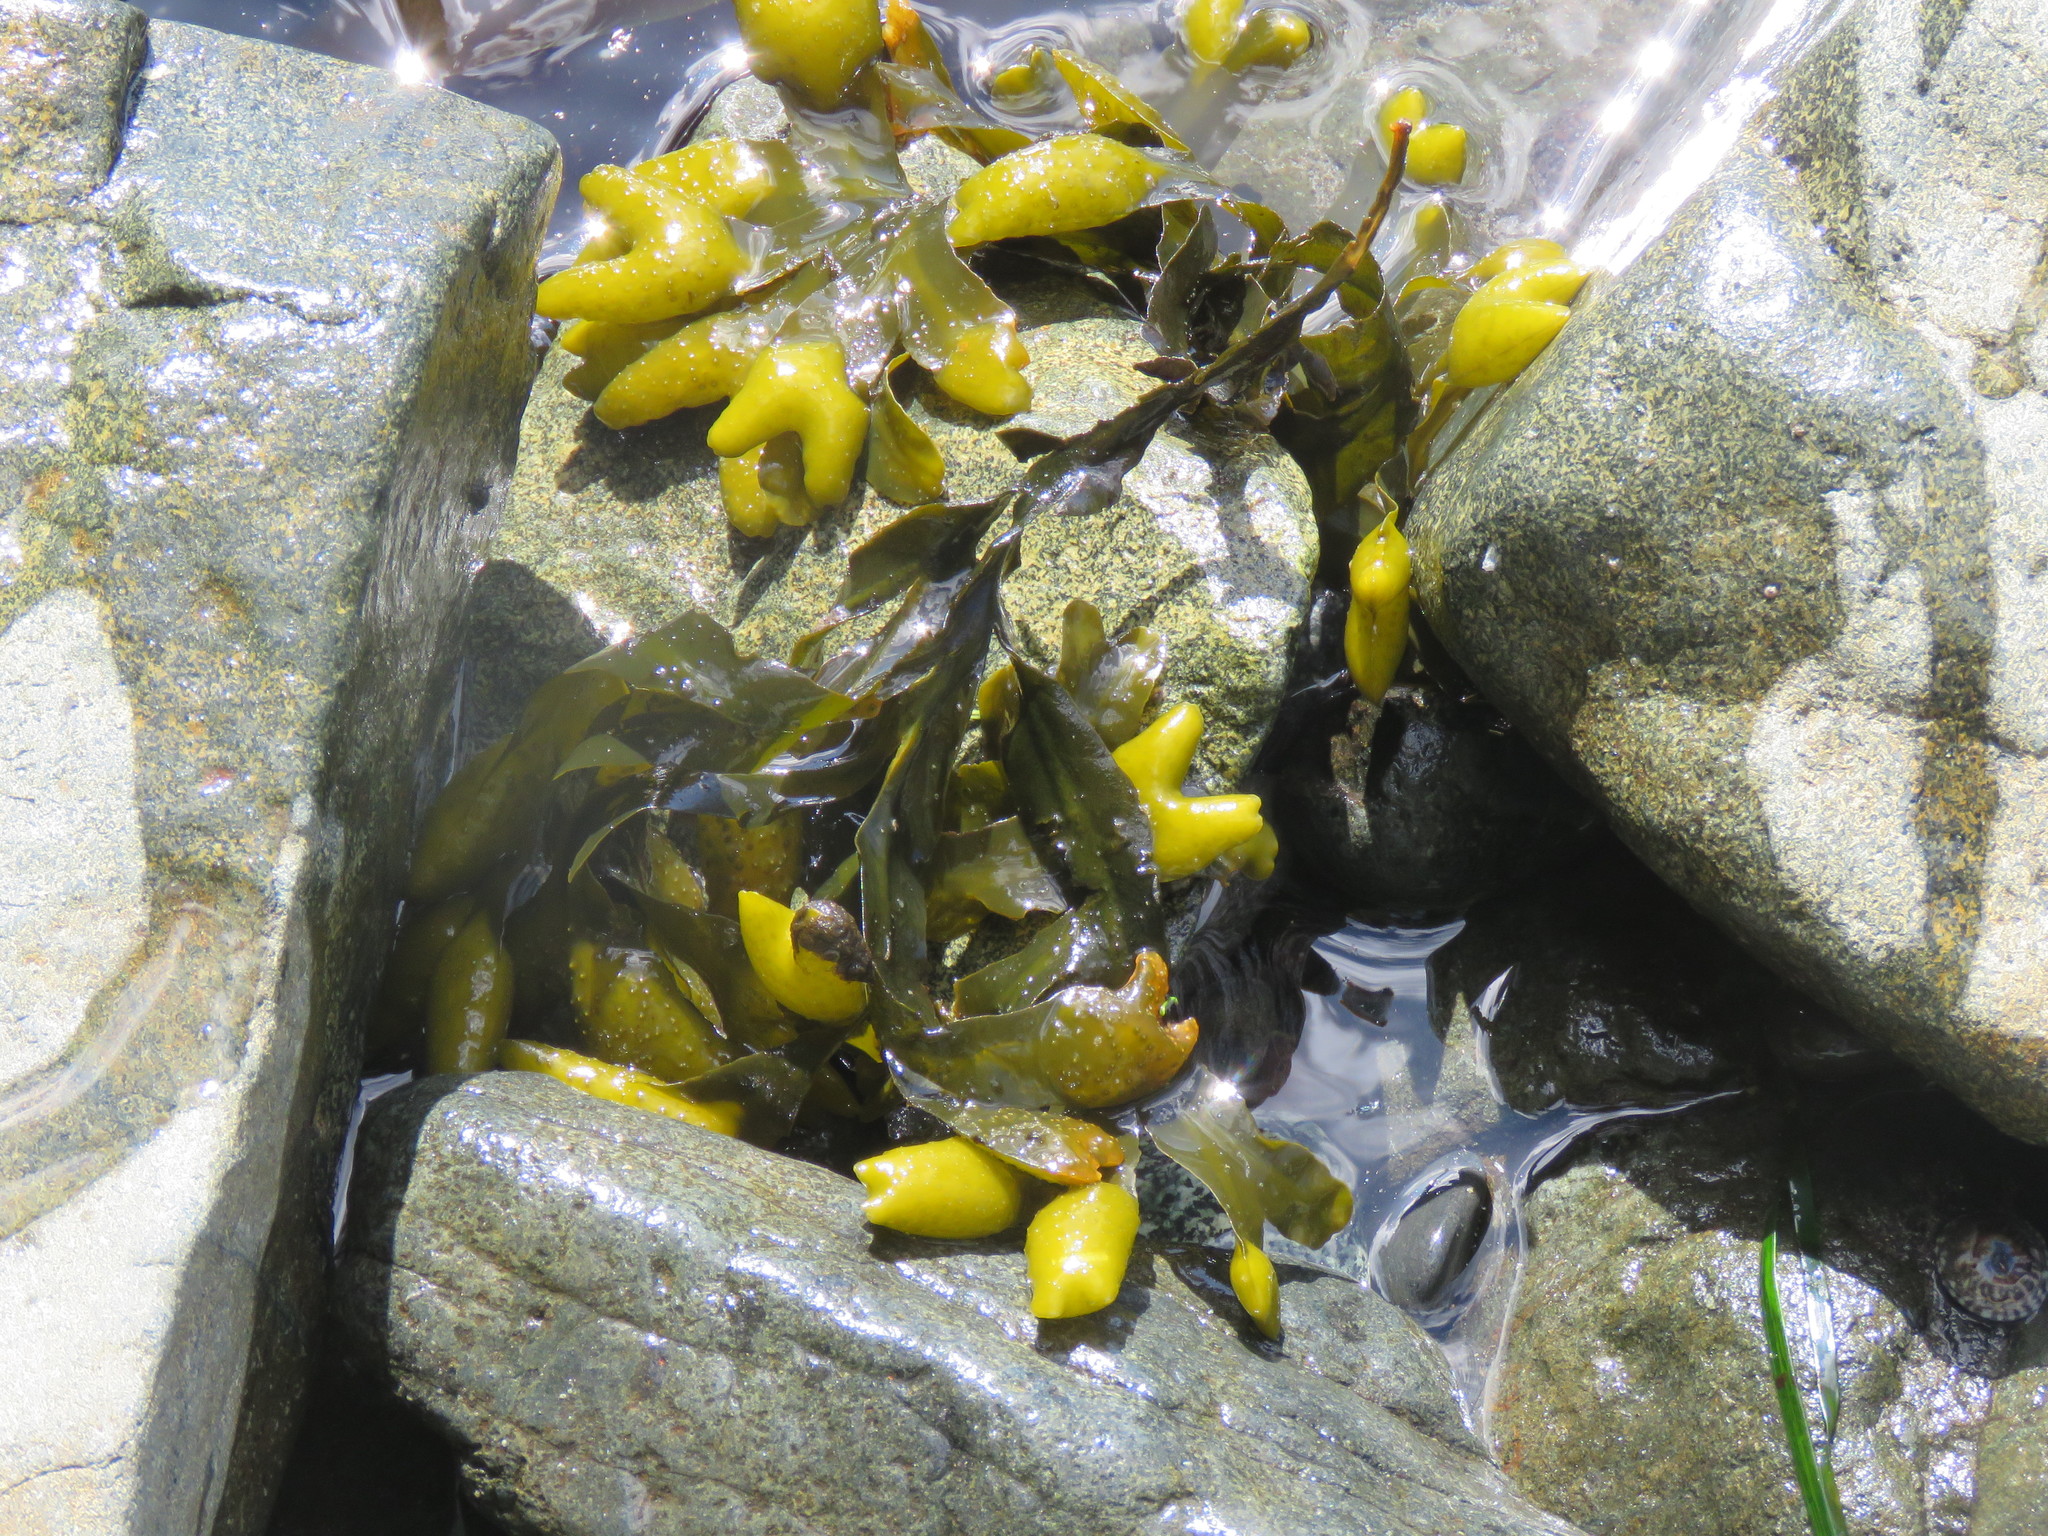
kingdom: Chromista
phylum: Ochrophyta
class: Phaeophyceae
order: Fucales
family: Fucaceae
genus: Fucus
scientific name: Fucus distichus
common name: Rockweed
